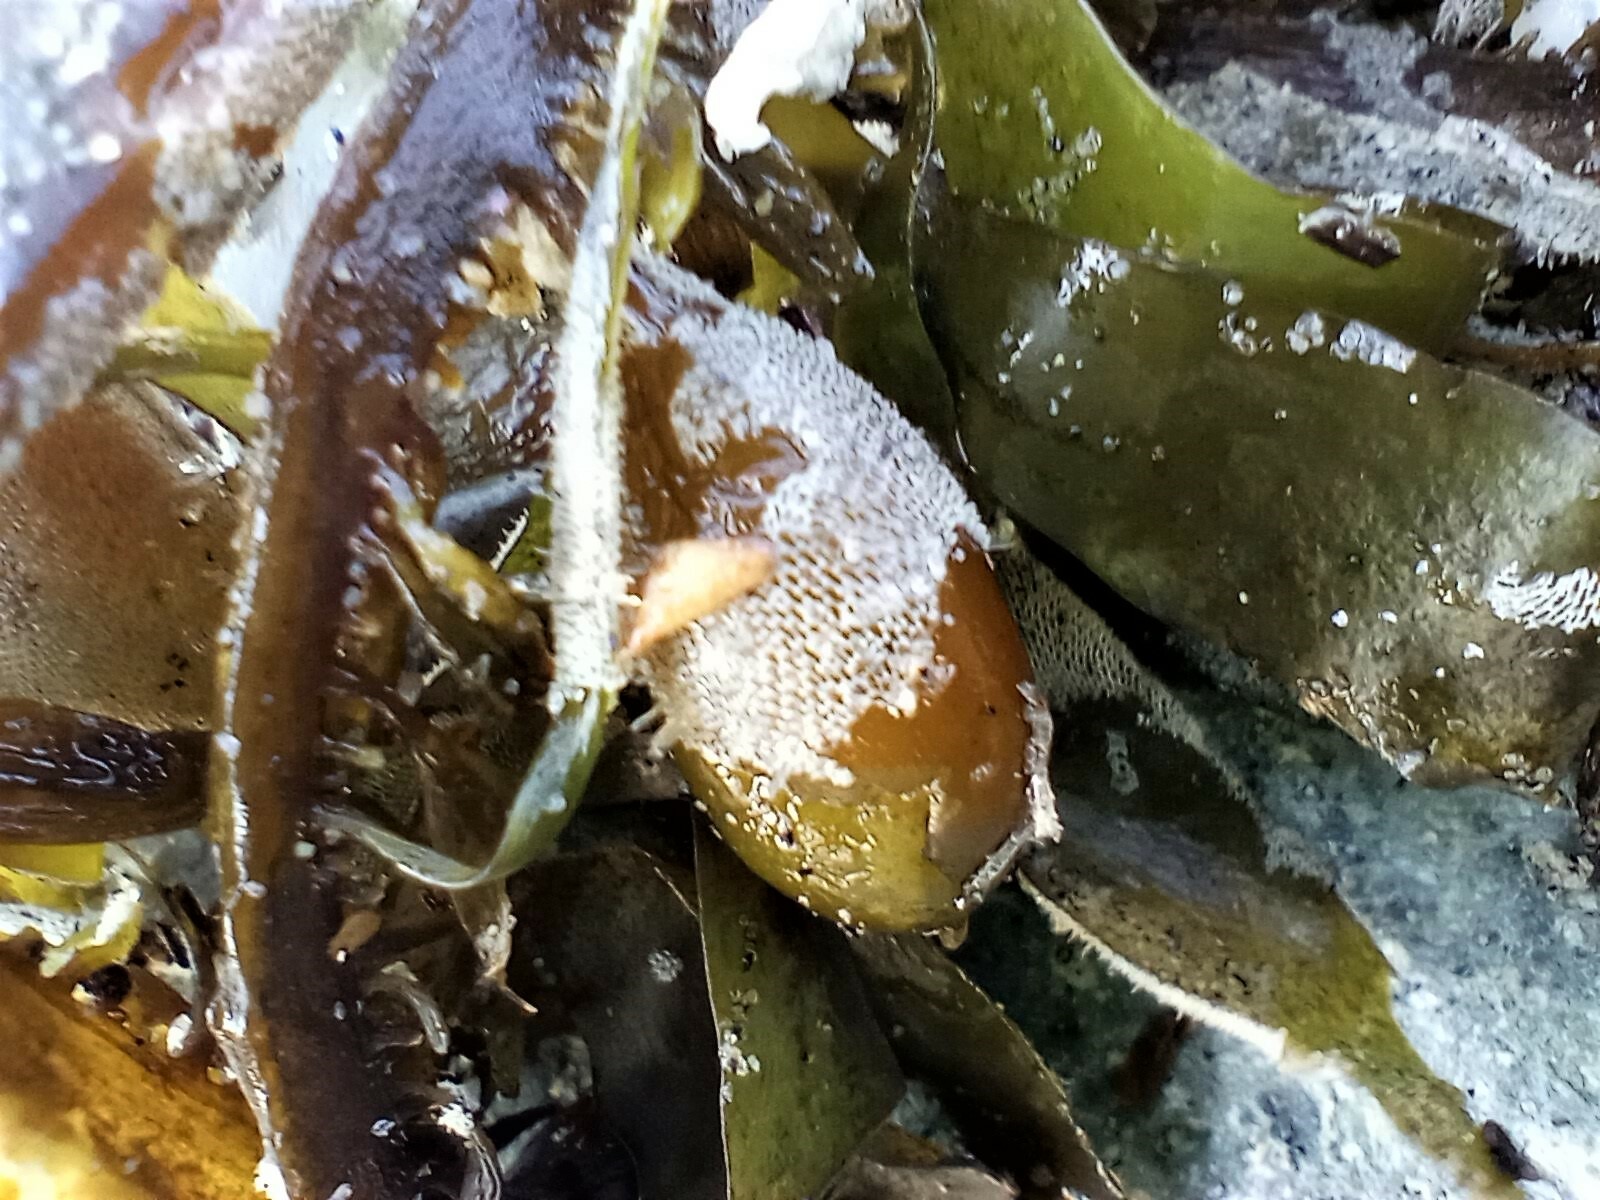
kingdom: Animalia
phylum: Bryozoa
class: Gymnolaemata
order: Cheilostomatida
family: Membraniporidae
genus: Membranipora
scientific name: Membranipora membranacea
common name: Sea mat
